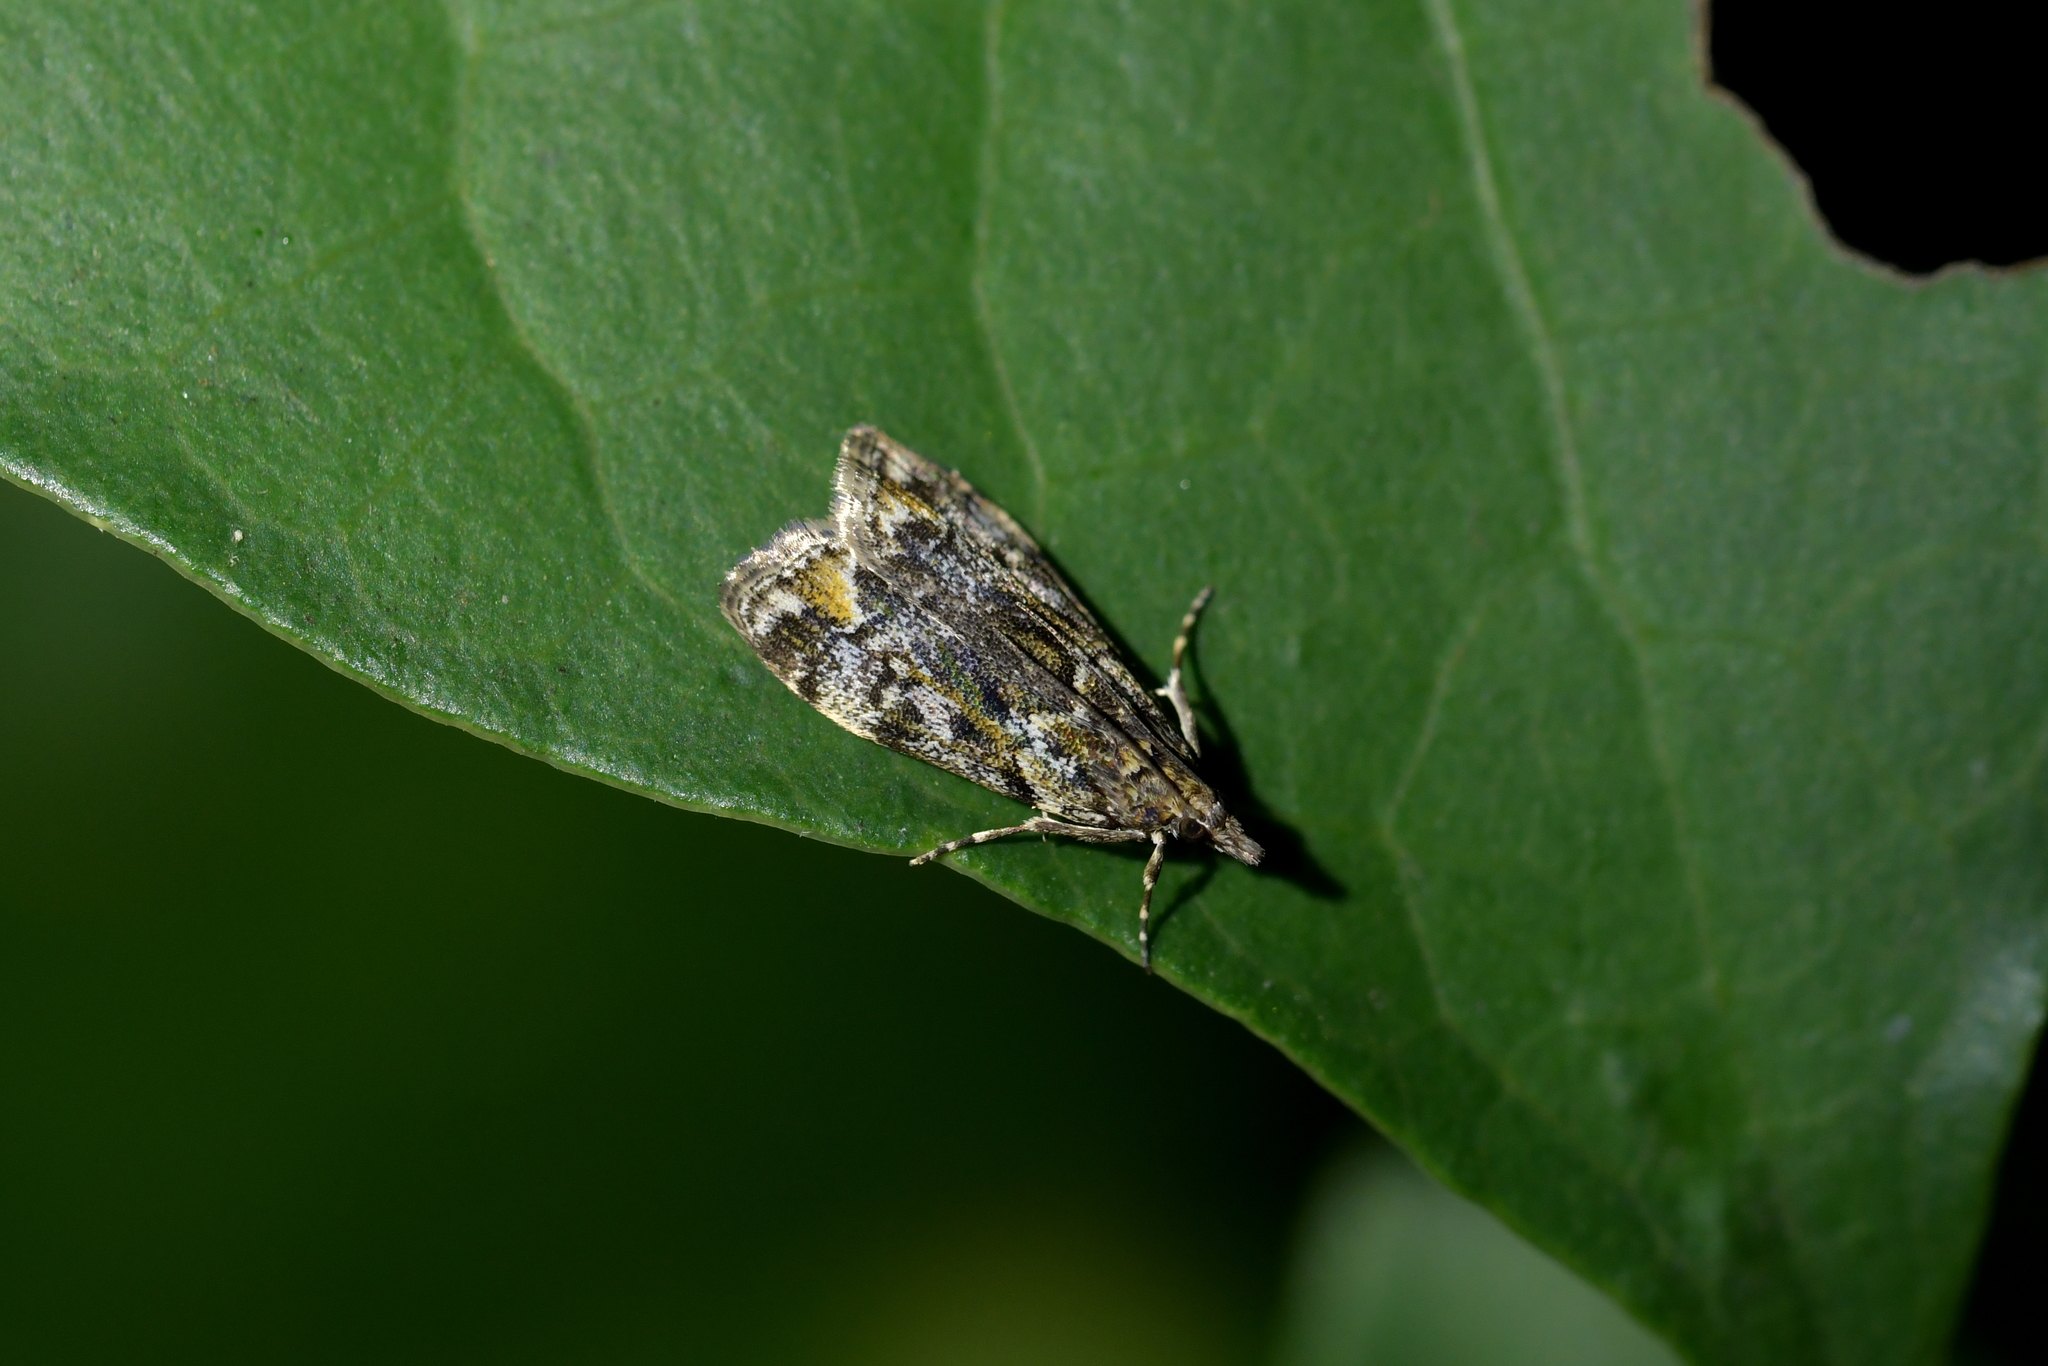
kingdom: Animalia
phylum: Arthropoda
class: Insecta
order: Lepidoptera
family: Crambidae
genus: Eudonia
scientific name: Eudonia minualis
